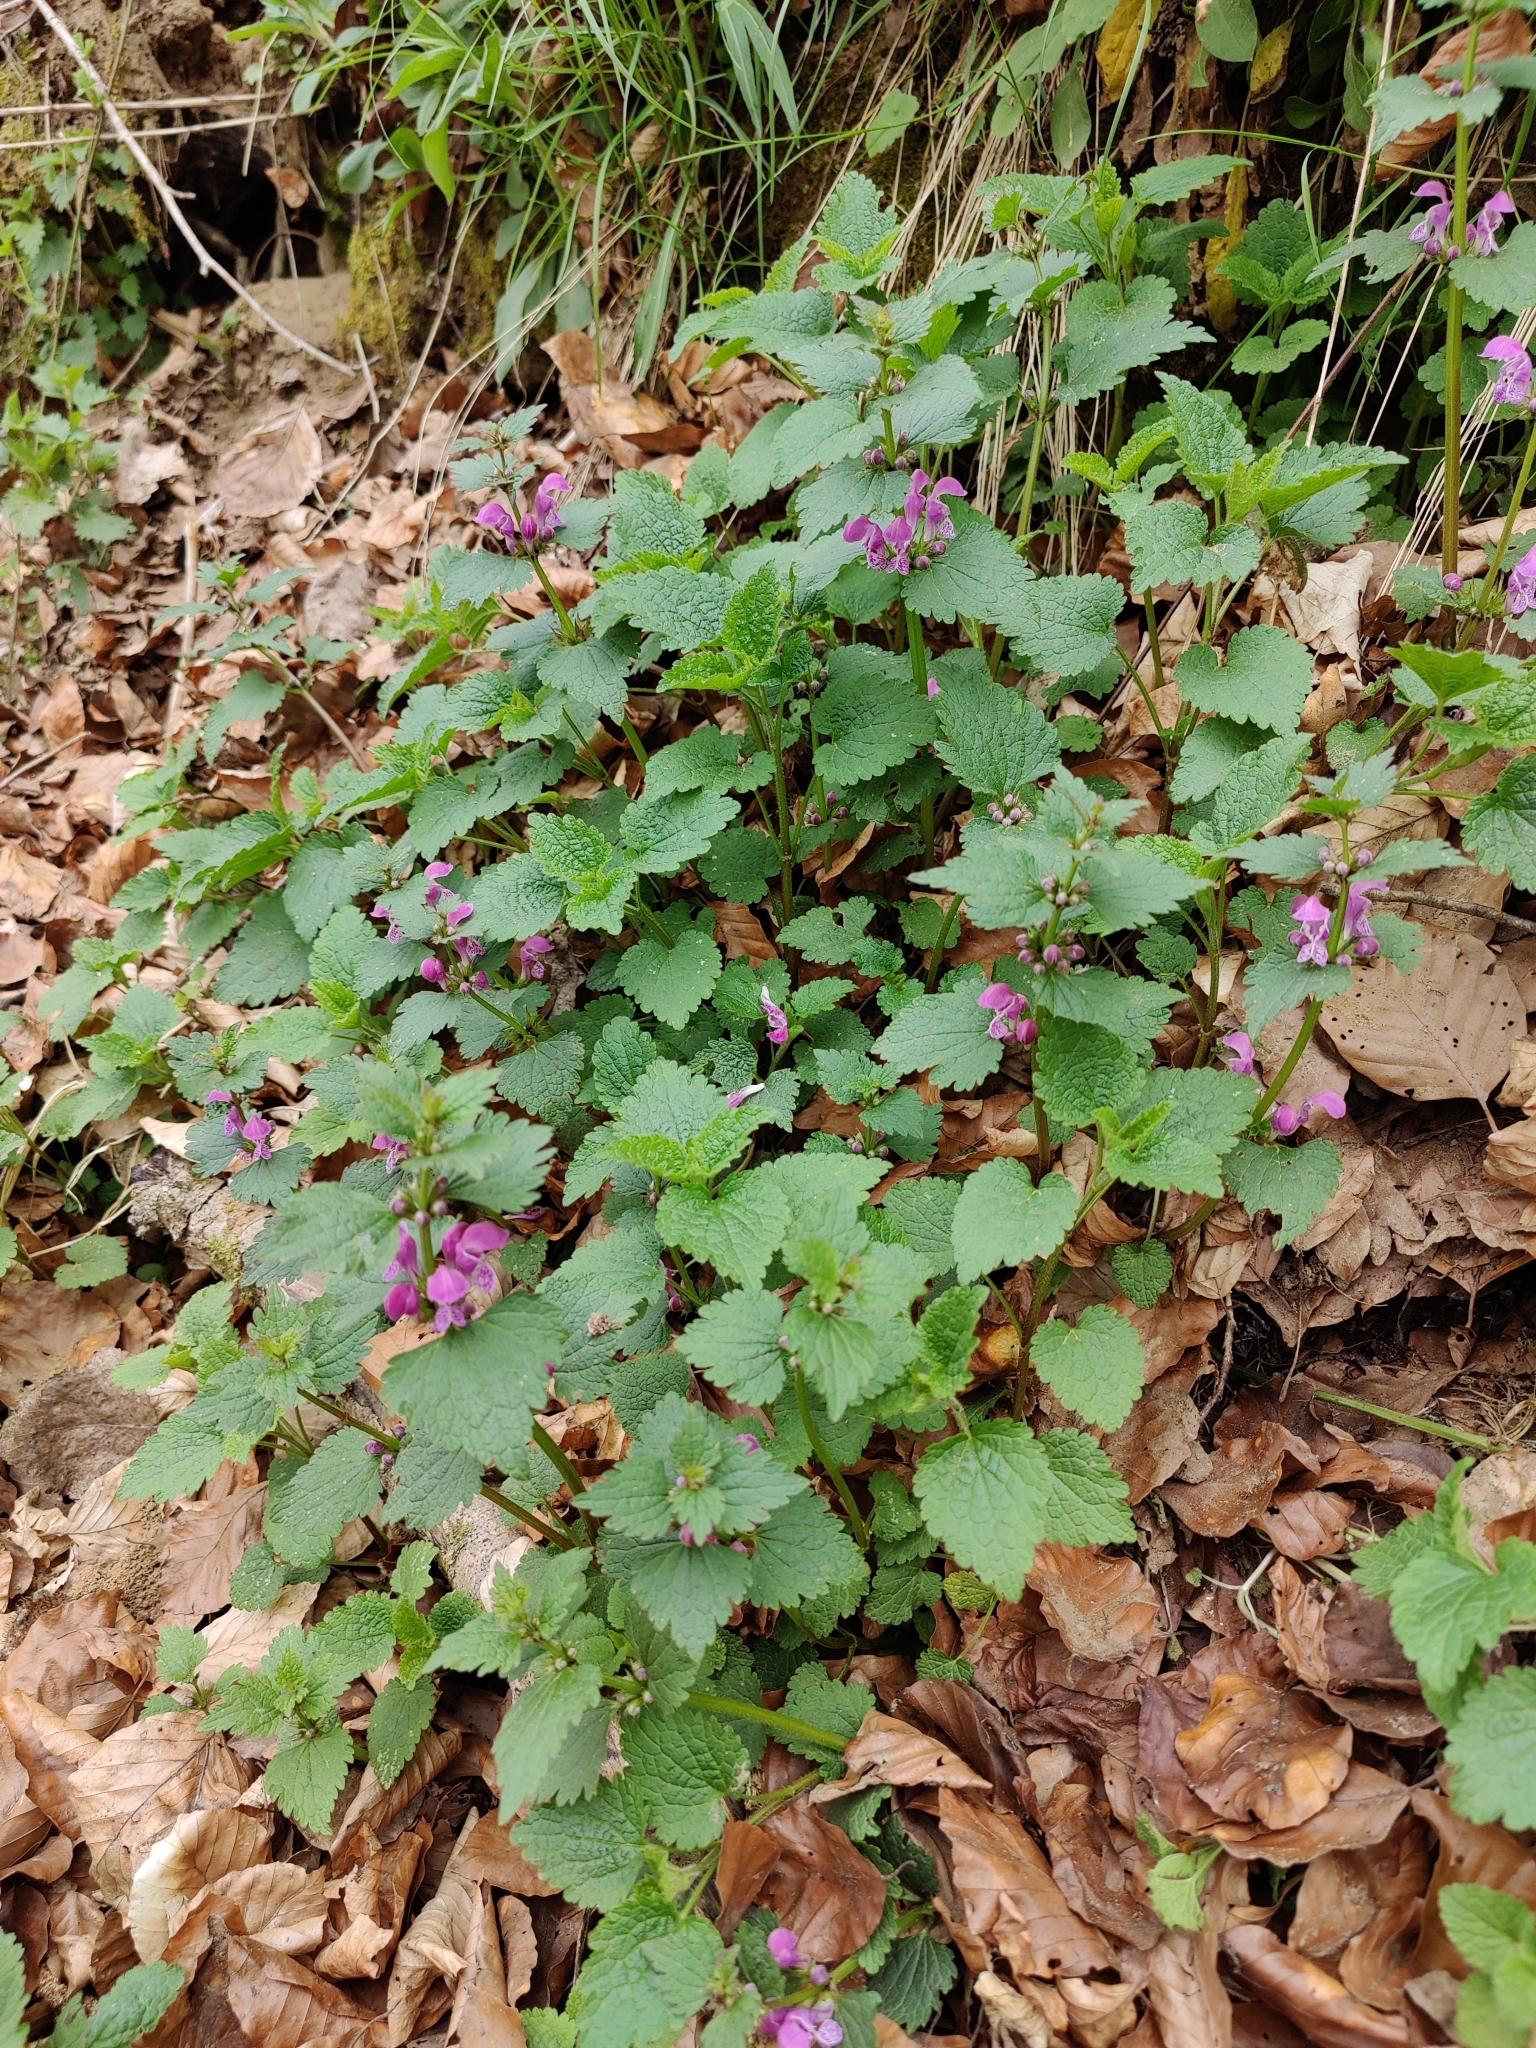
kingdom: Plantae
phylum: Tracheophyta
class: Magnoliopsida
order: Lamiales
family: Lamiaceae
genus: Lamium
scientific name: Lamium maculatum
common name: Spotted dead-nettle
